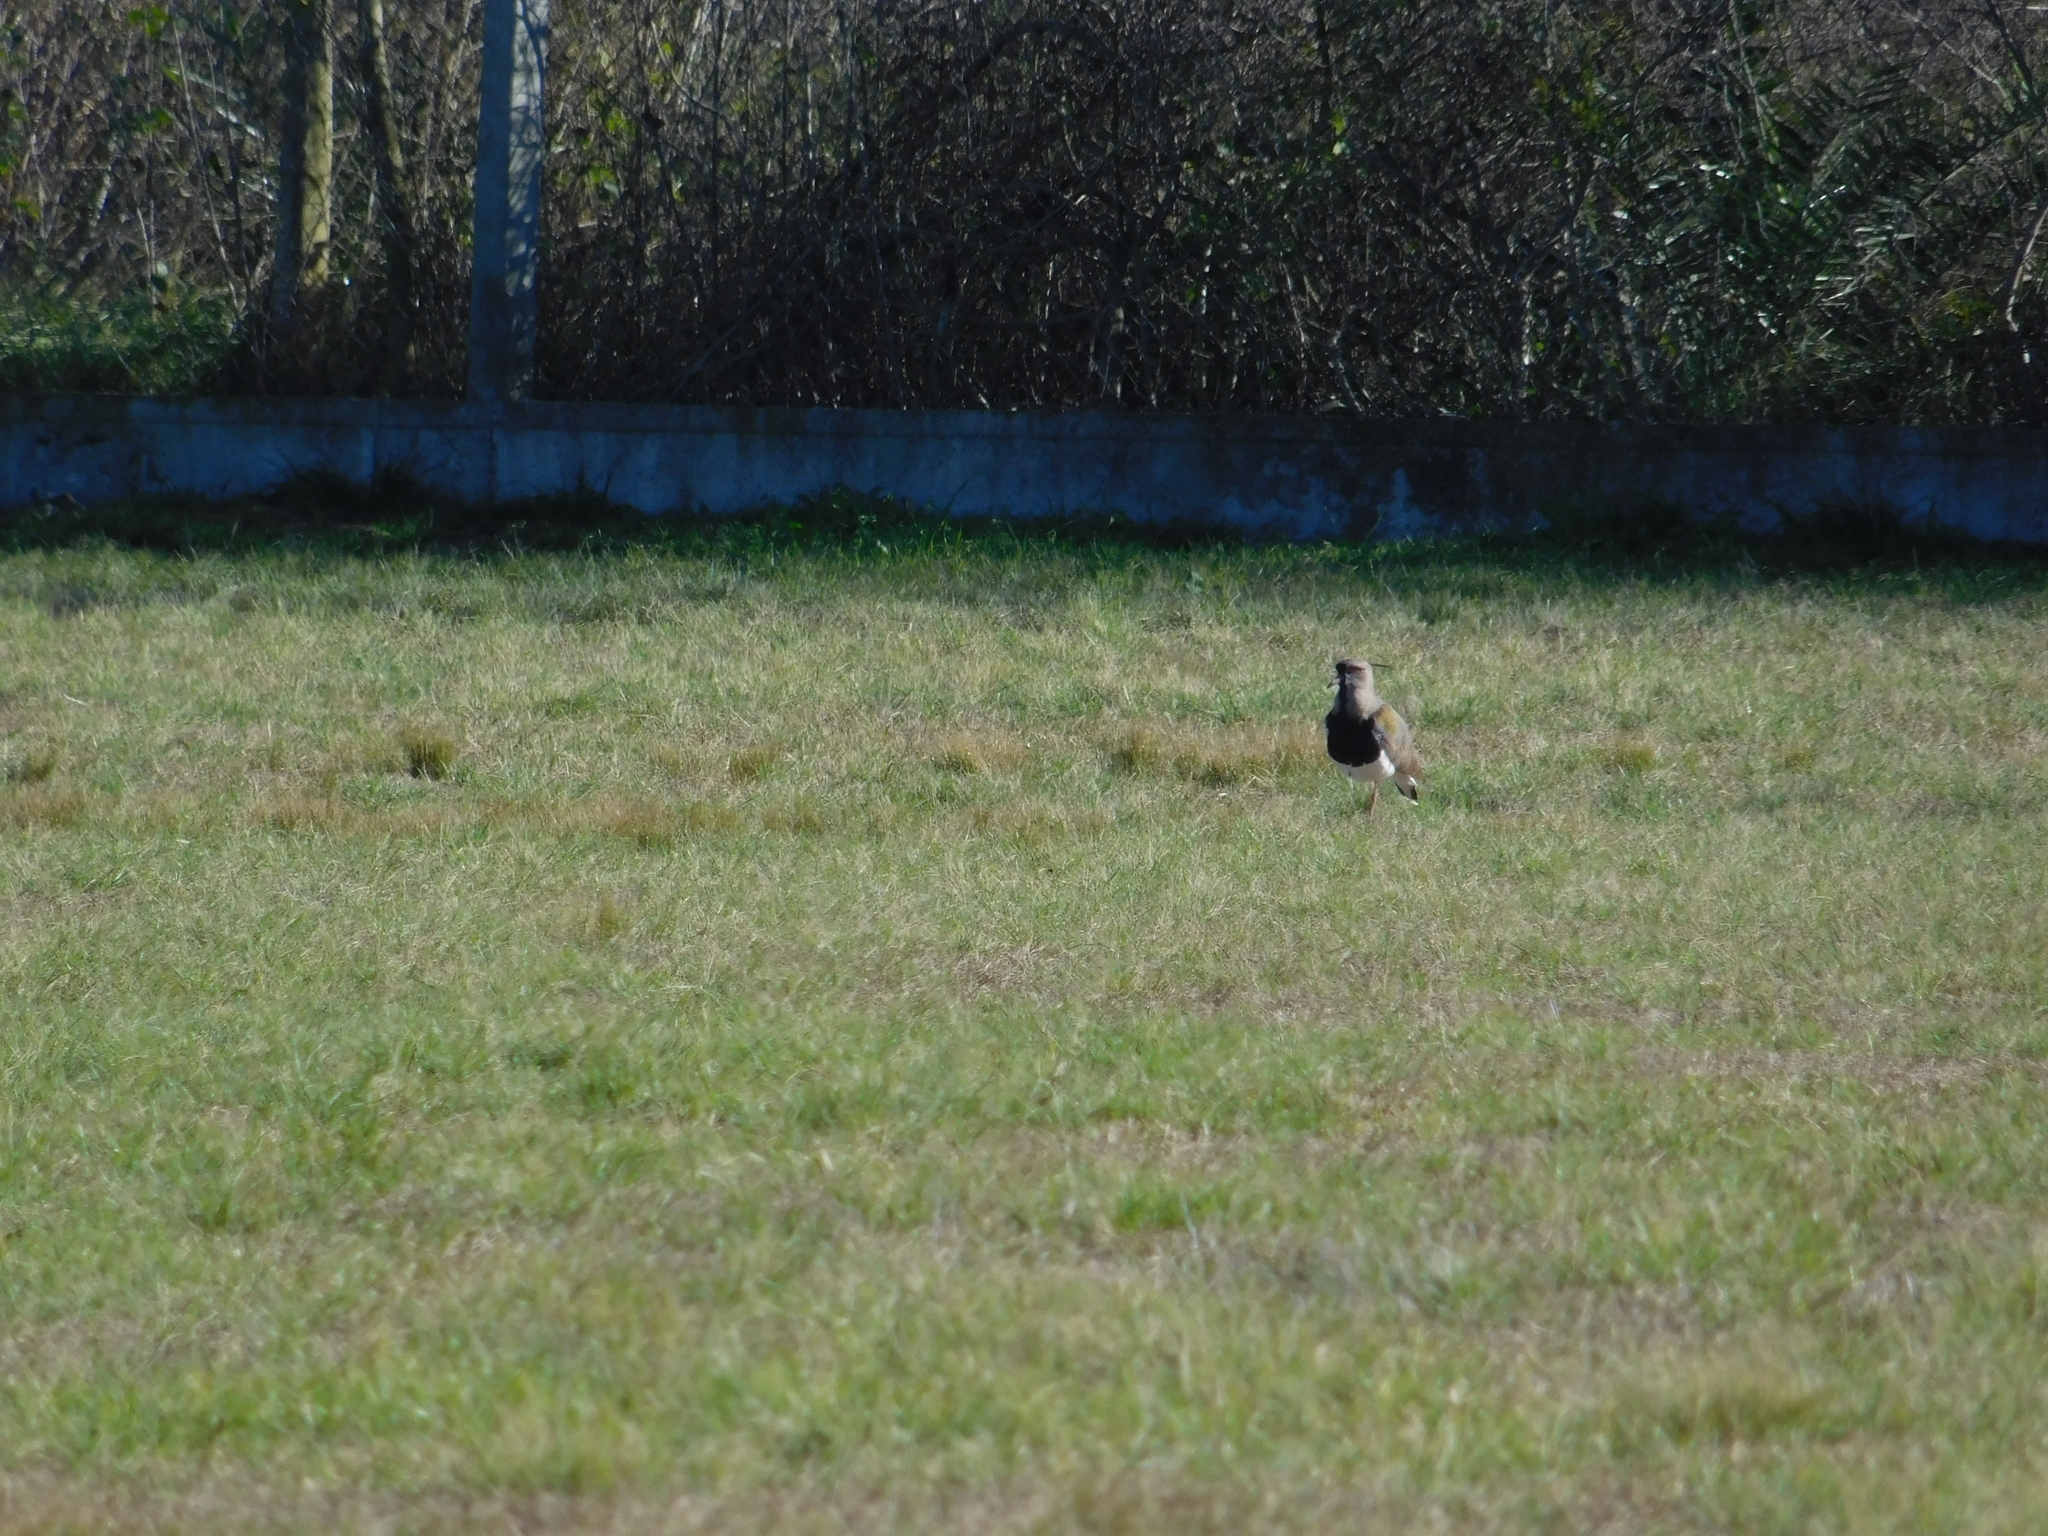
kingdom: Animalia
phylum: Chordata
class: Aves
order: Charadriiformes
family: Charadriidae
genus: Vanellus
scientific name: Vanellus chilensis
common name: Southern lapwing
